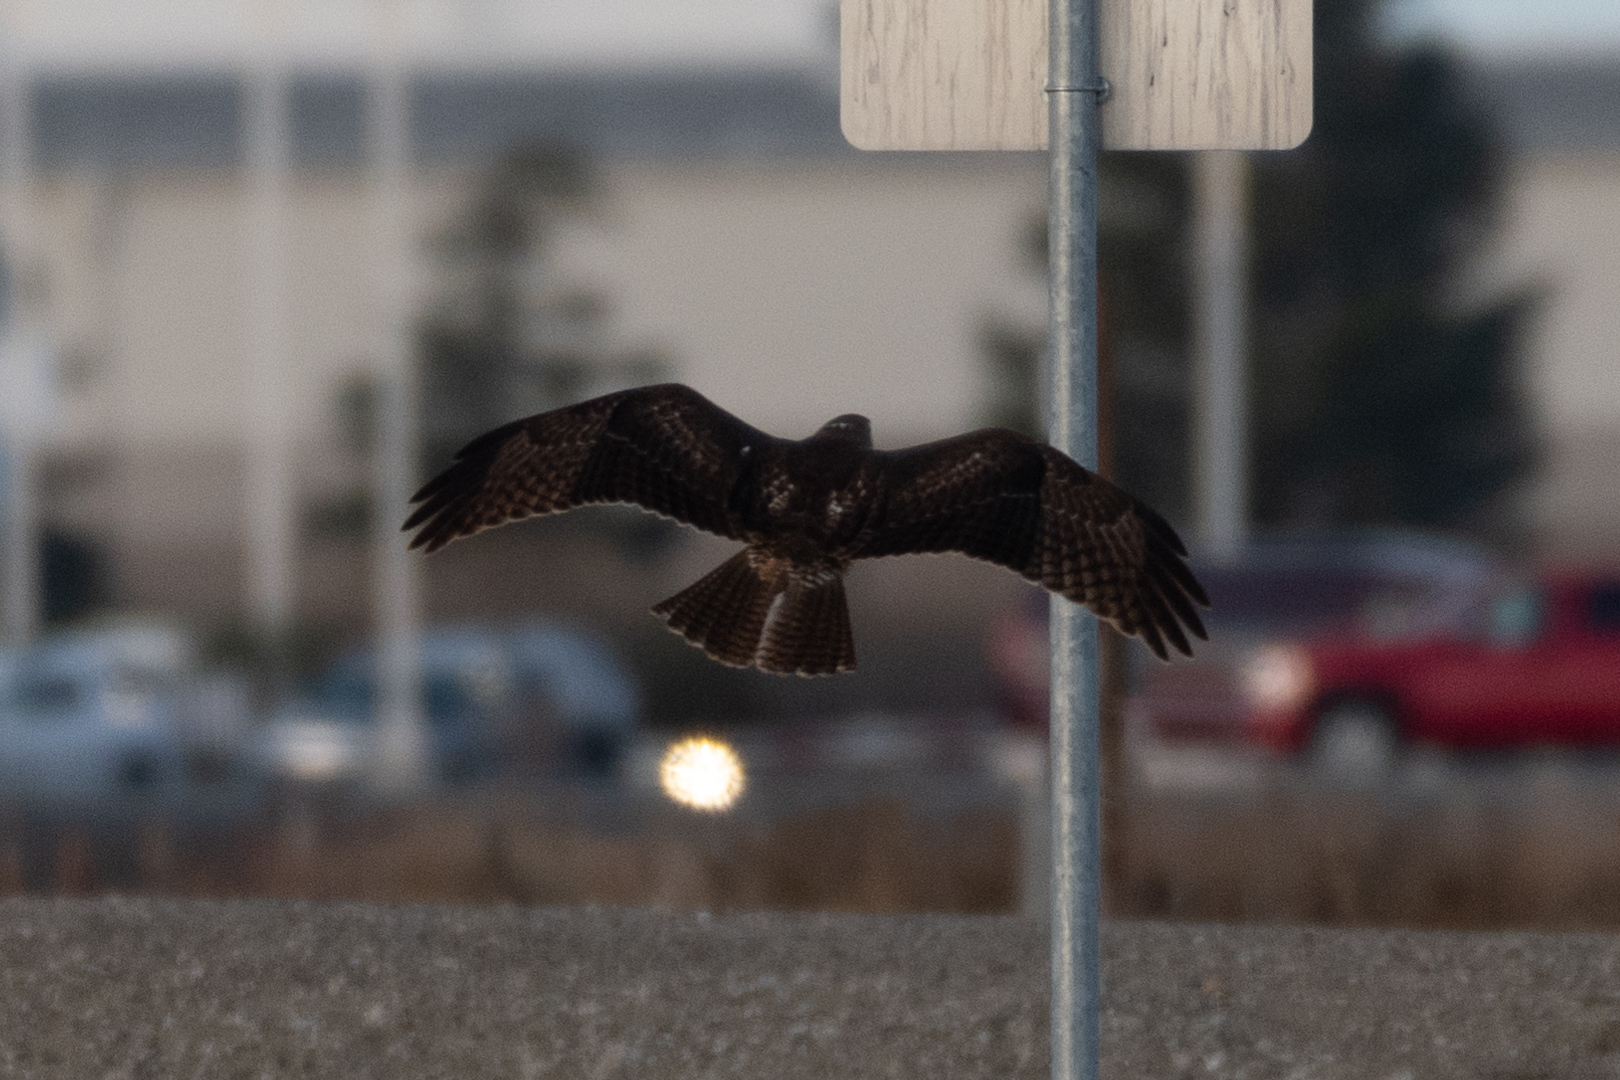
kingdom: Animalia
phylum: Chordata
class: Aves
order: Accipitriformes
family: Accipitridae
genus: Buteo
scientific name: Buteo jamaicensis
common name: Red-tailed hawk
